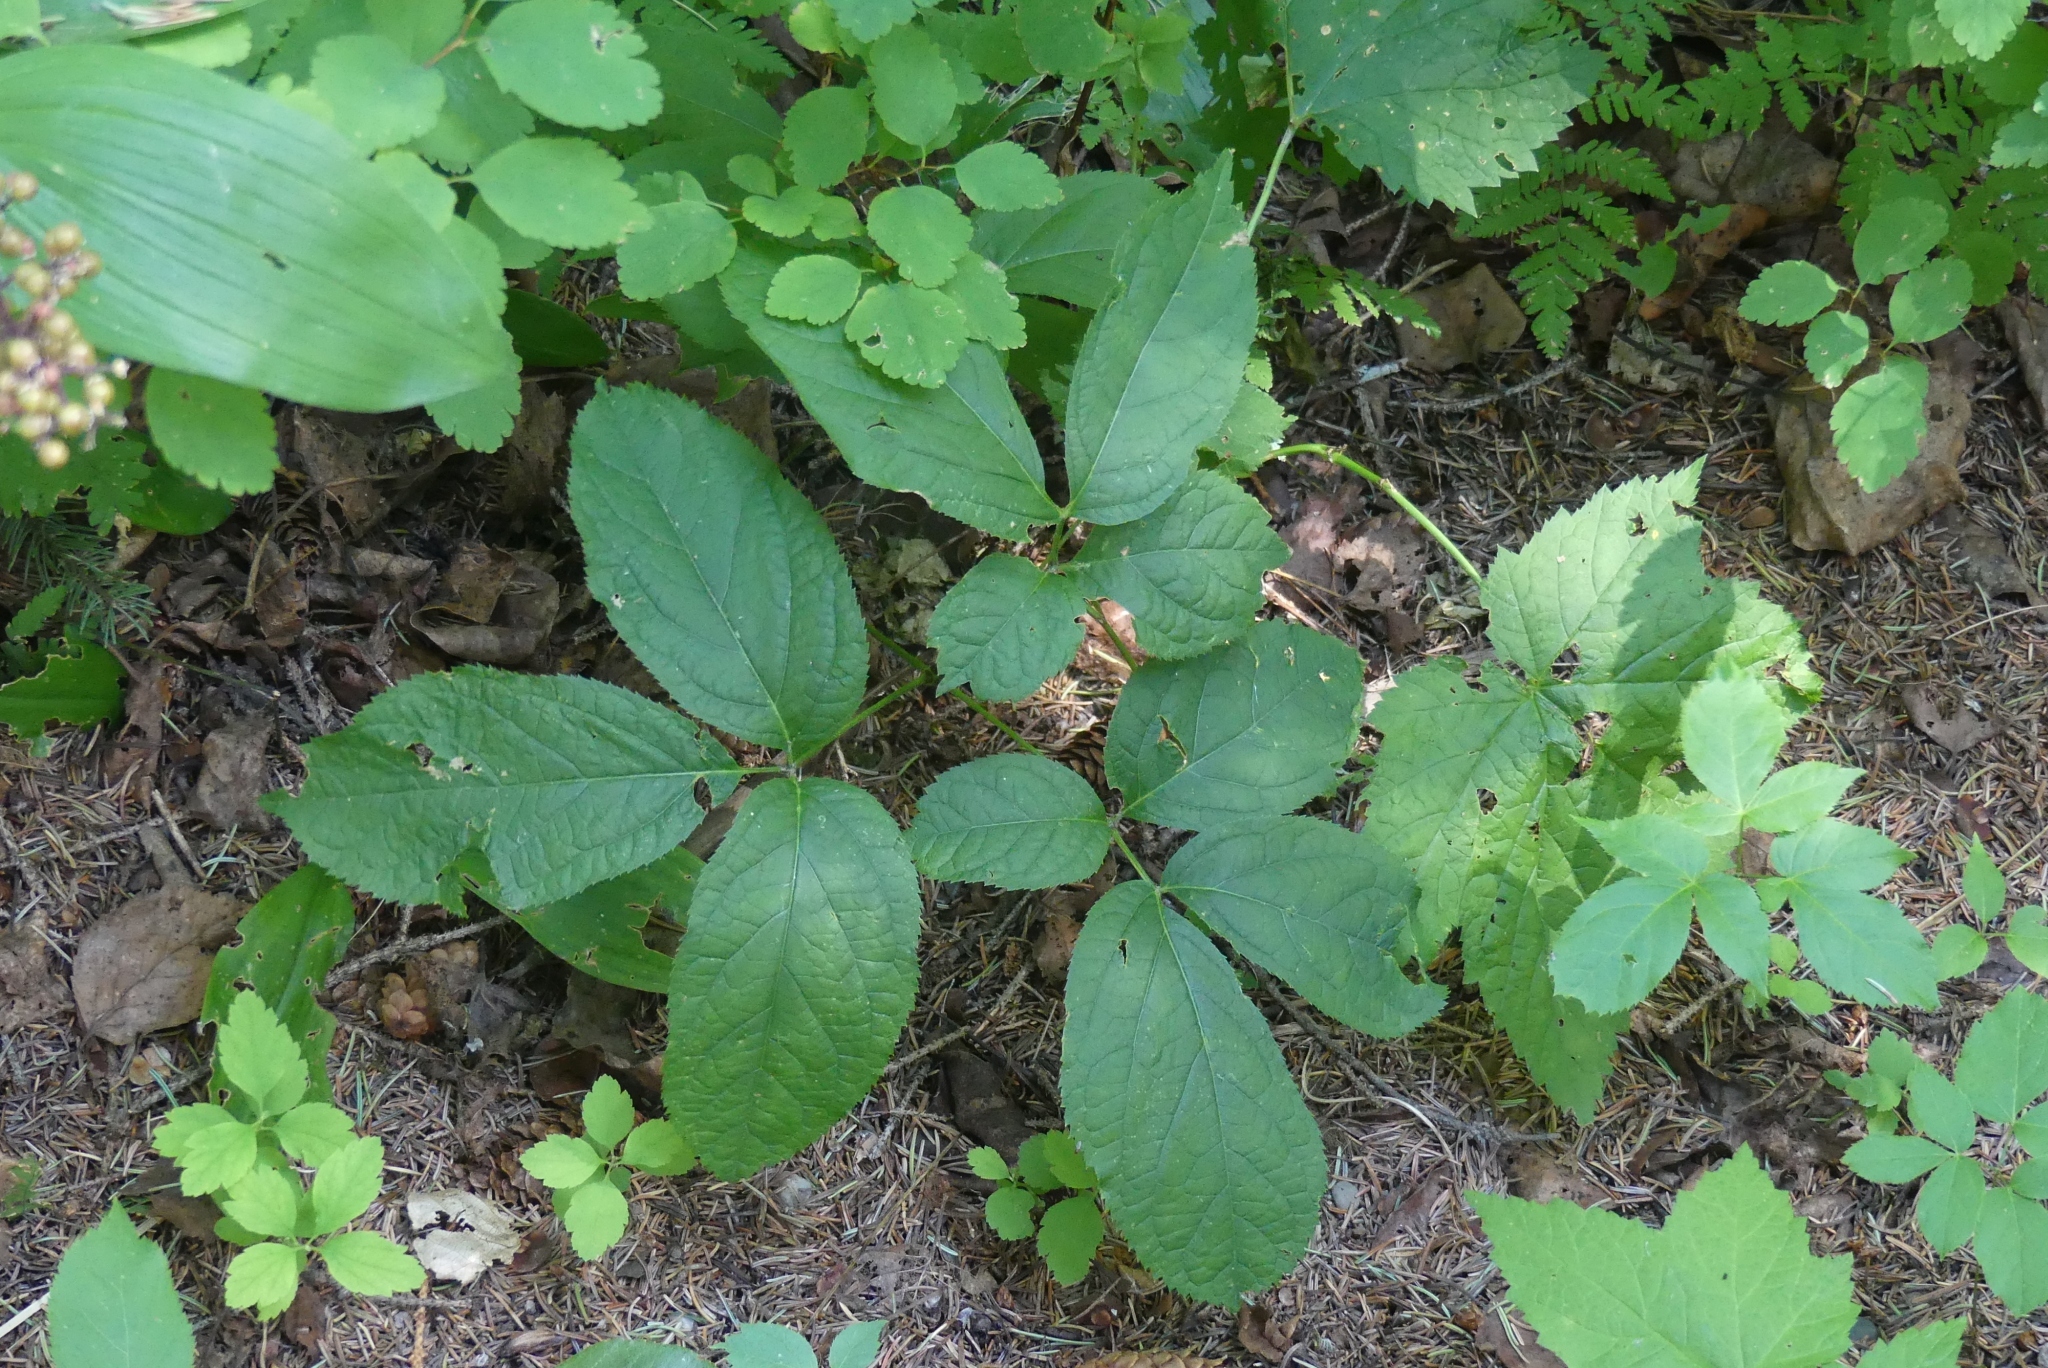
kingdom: Plantae
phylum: Tracheophyta
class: Magnoliopsida
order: Apiales
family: Araliaceae
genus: Aralia
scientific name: Aralia nudicaulis
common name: Wild sarsaparilla
